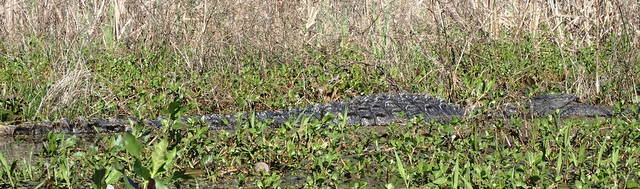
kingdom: Animalia
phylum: Chordata
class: Crocodylia
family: Alligatoridae
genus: Alligator
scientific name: Alligator mississippiensis
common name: American alligator
